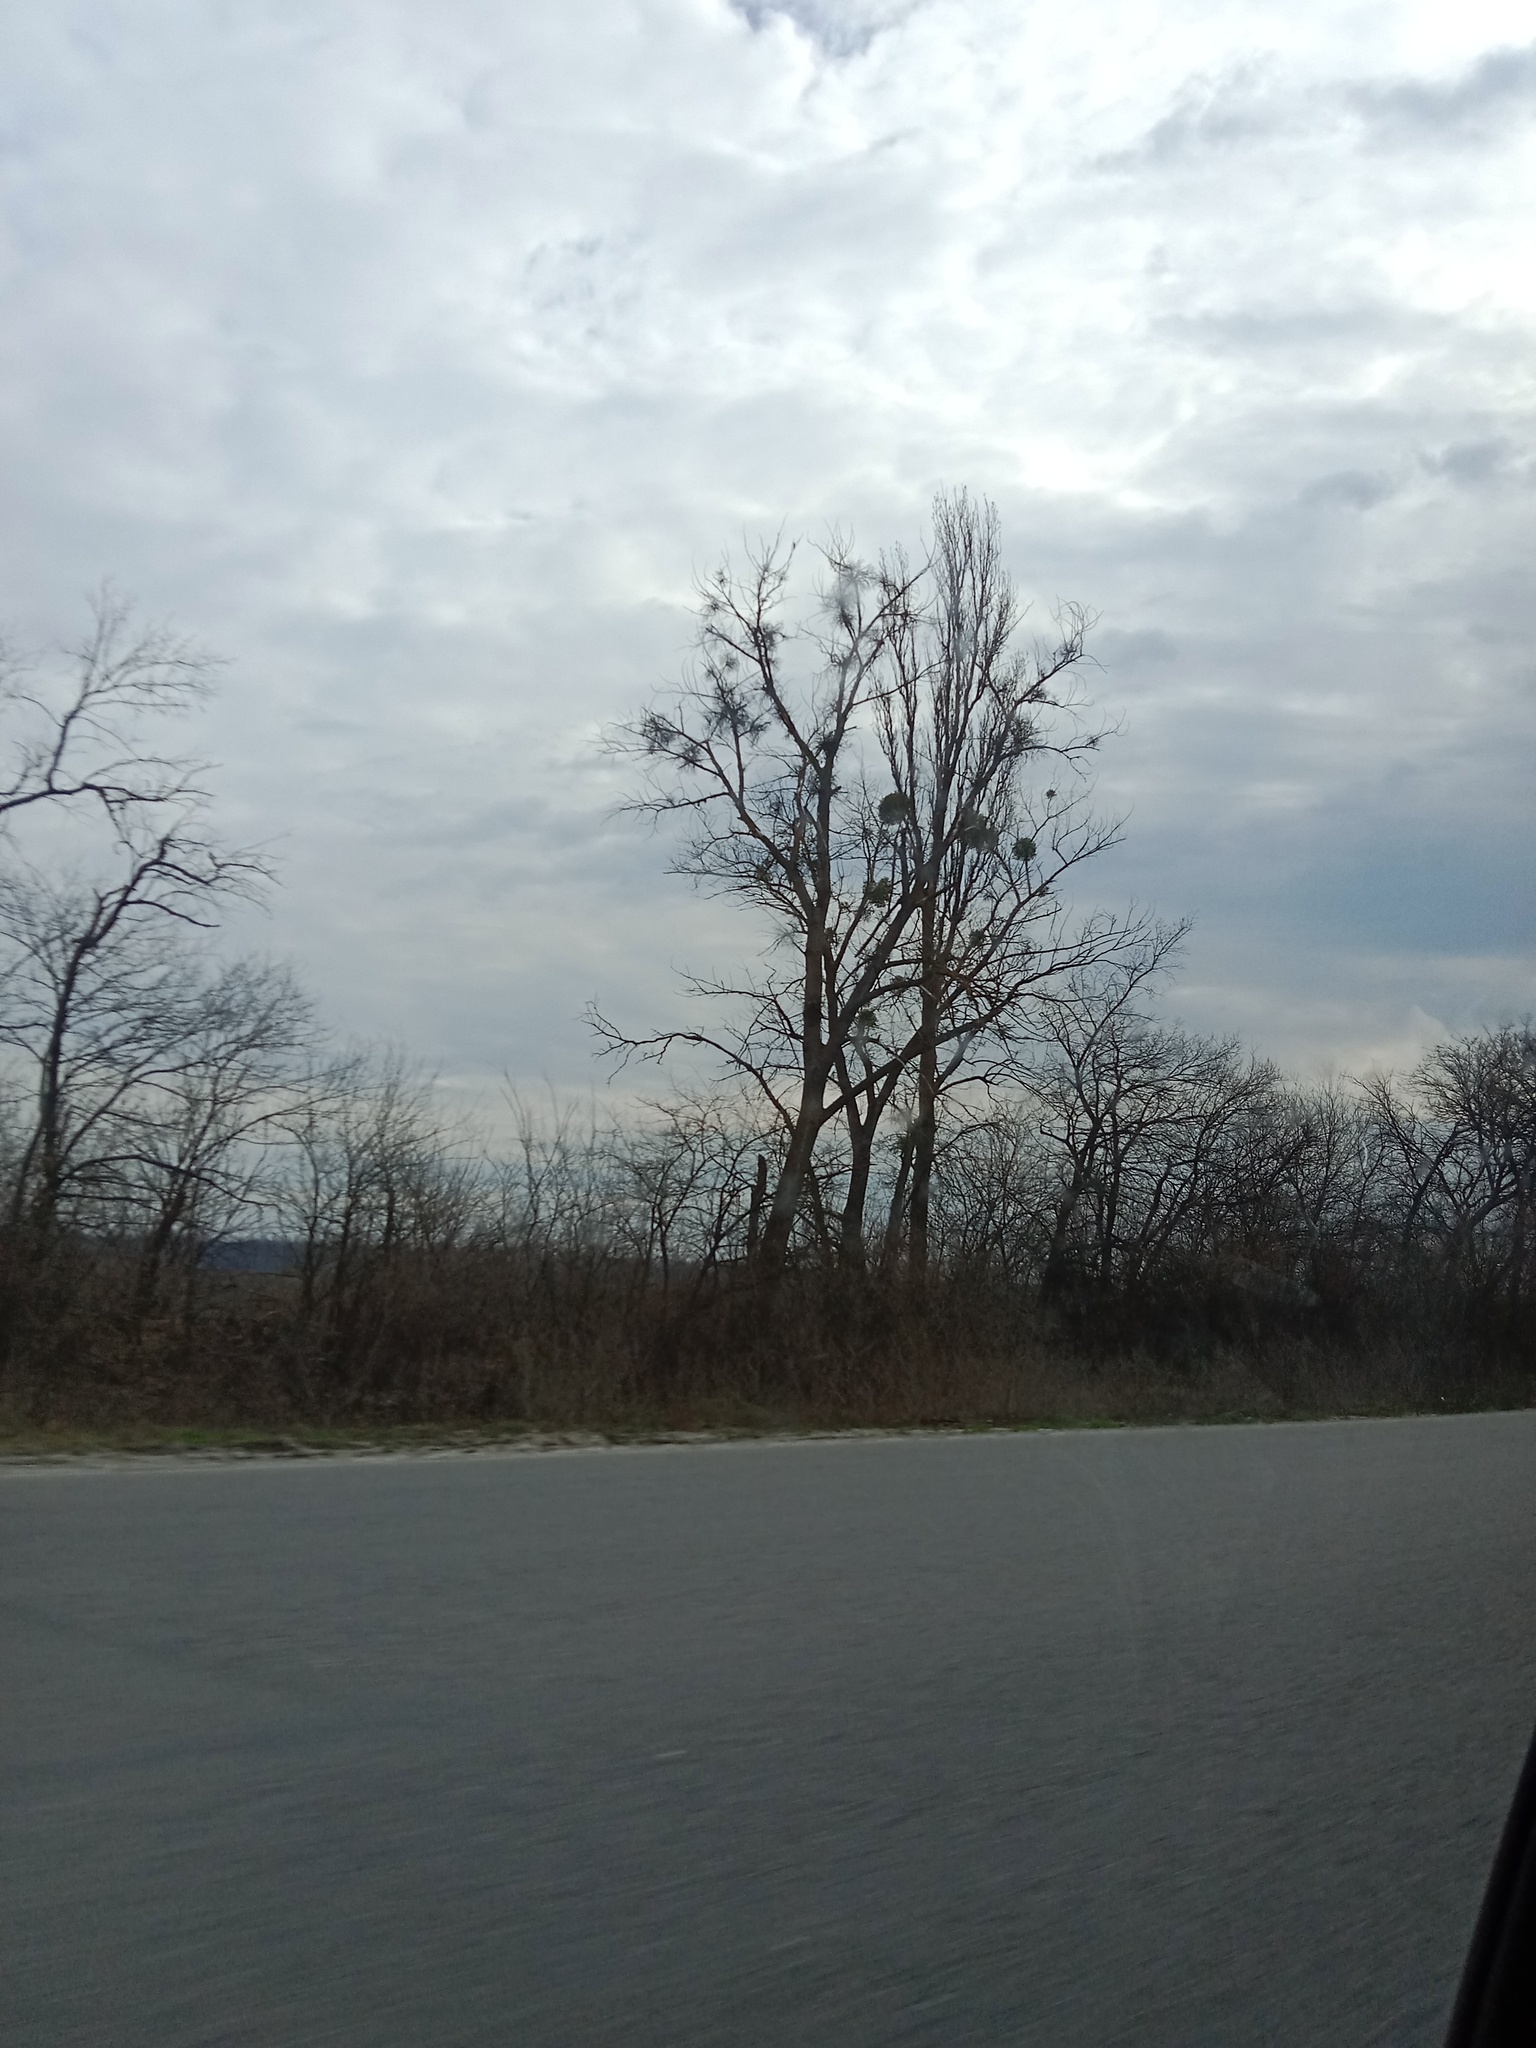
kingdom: Plantae
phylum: Tracheophyta
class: Magnoliopsida
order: Santalales
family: Viscaceae
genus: Viscum
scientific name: Viscum album
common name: Mistletoe
